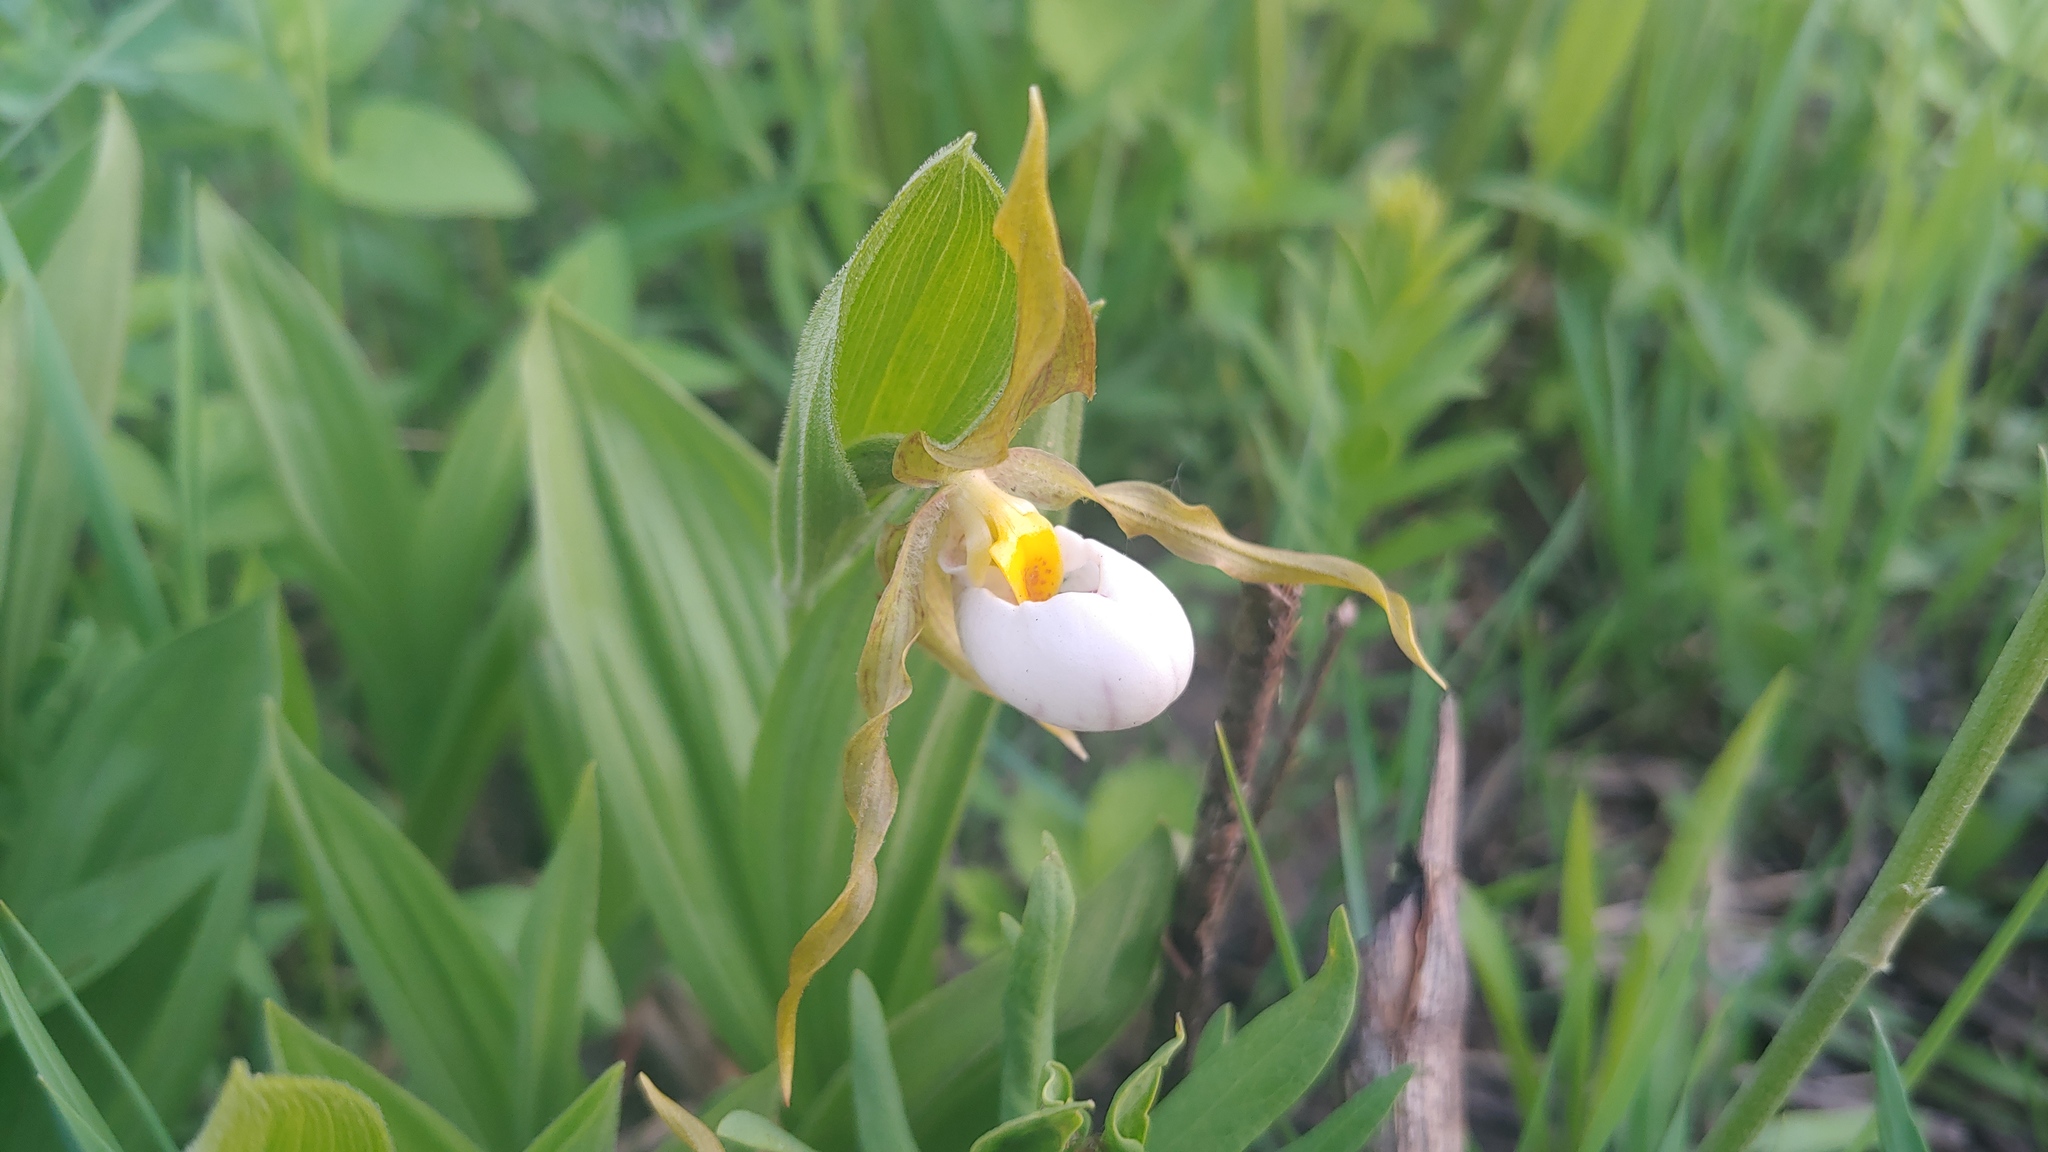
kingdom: Plantae
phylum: Tracheophyta
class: Liliopsida
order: Asparagales
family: Orchidaceae
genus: Cypripedium
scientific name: Cypripedium candidum
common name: White lady's-slipper
